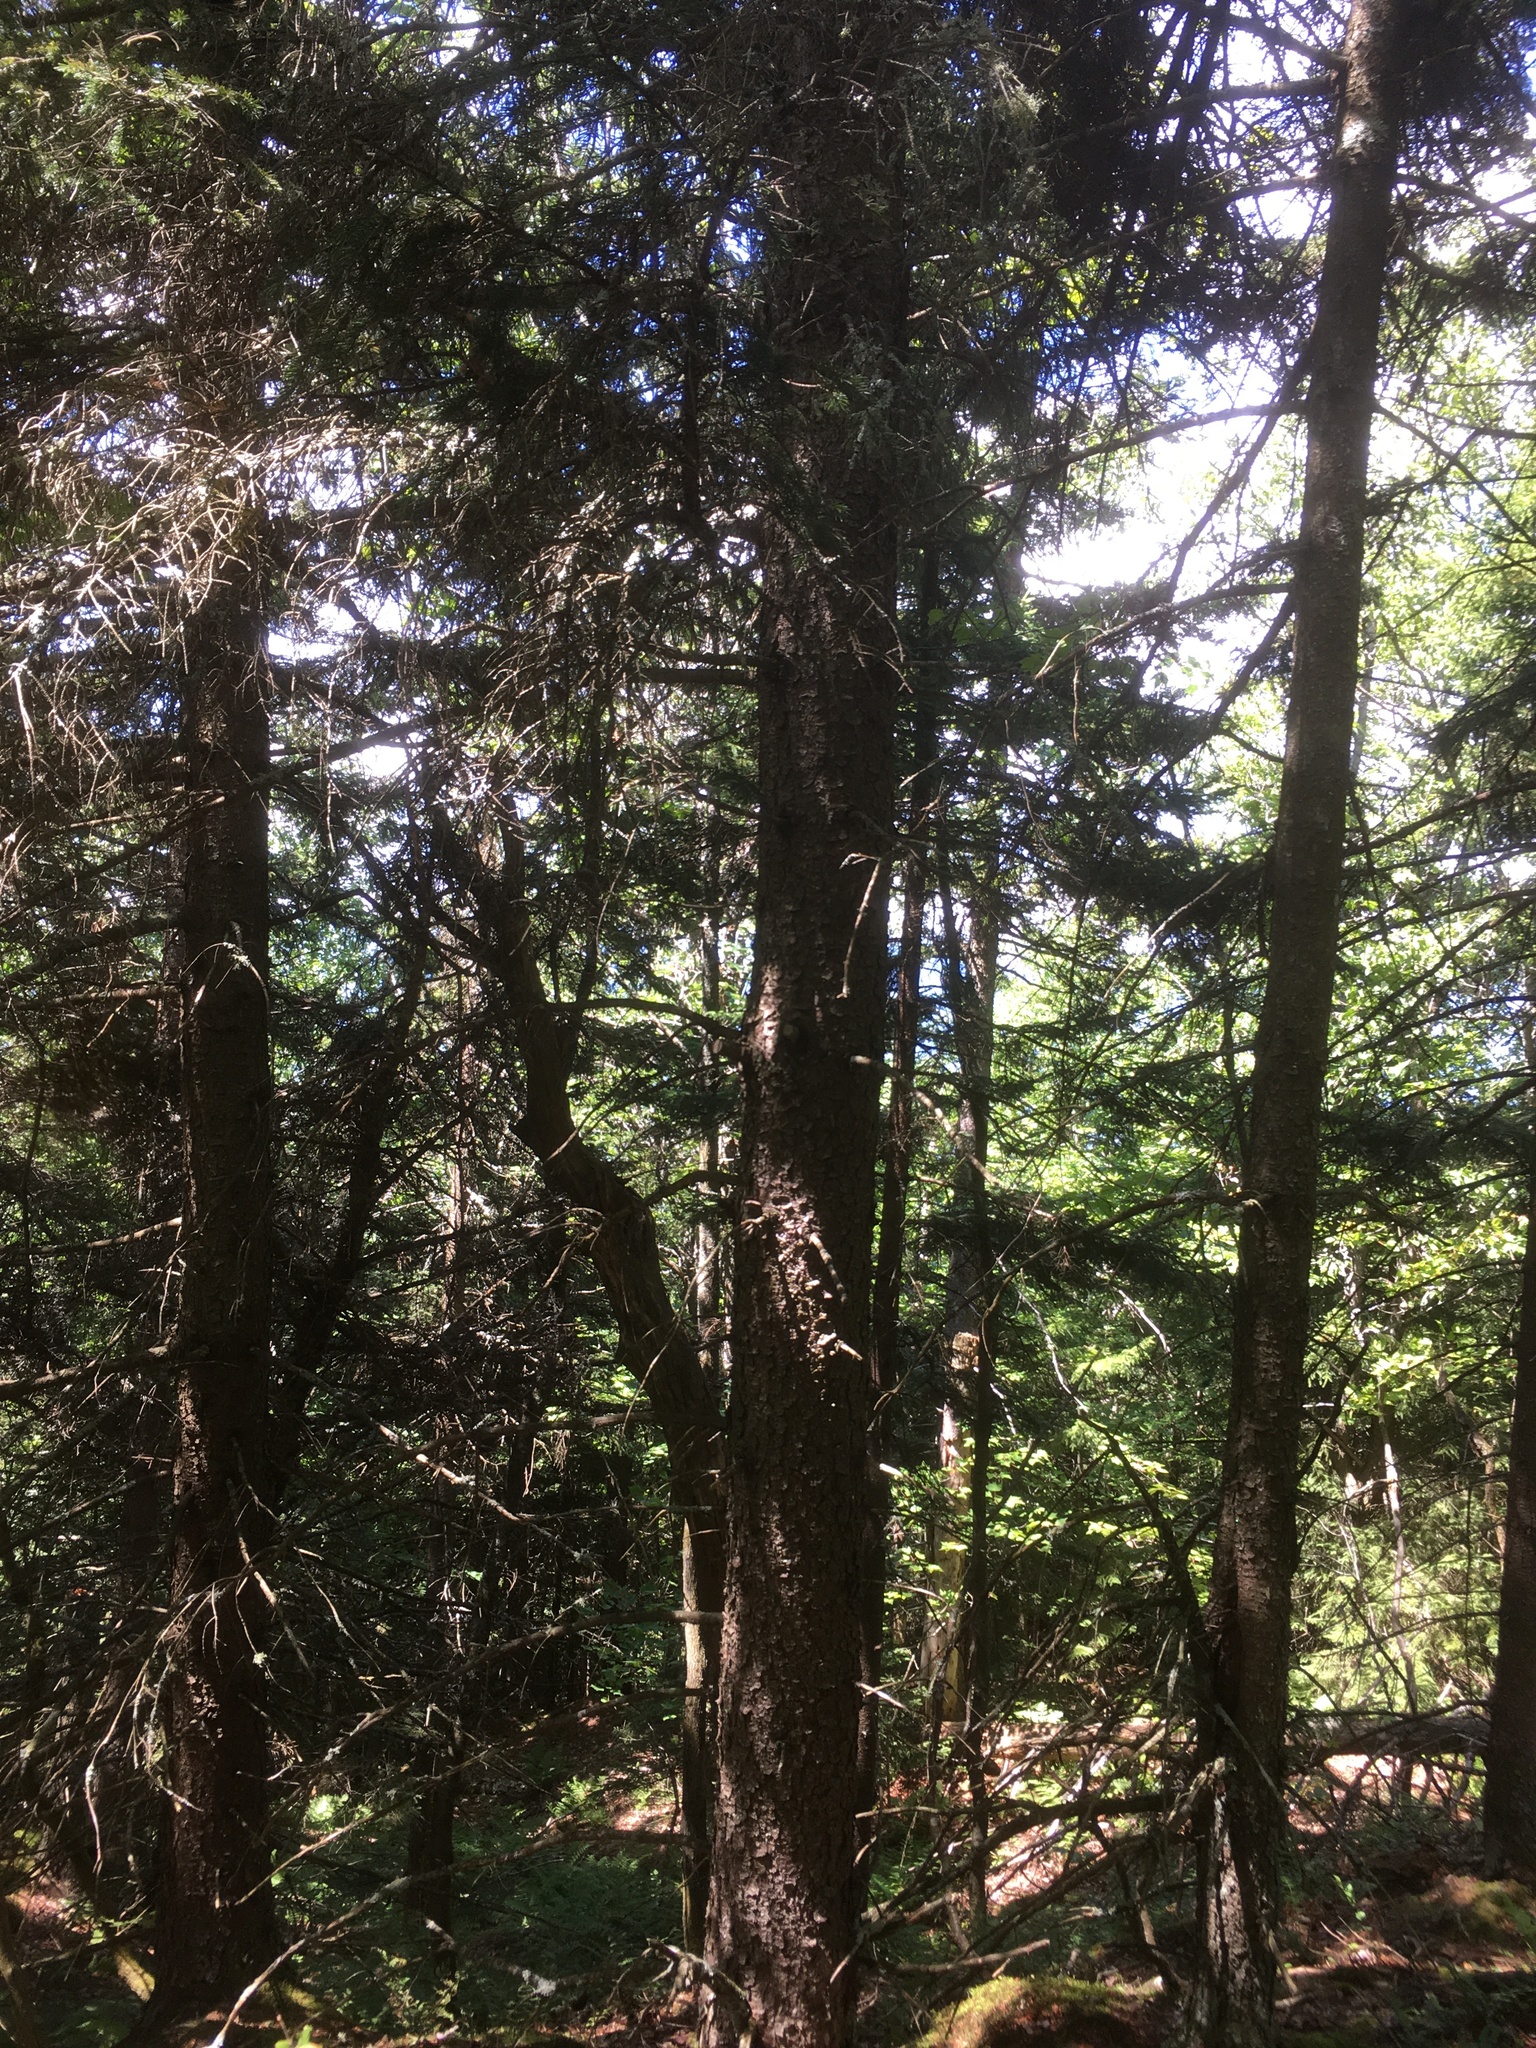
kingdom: Plantae
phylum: Tracheophyta
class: Pinopsida
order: Pinales
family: Pinaceae
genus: Picea
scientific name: Picea rubens
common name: Red spruce
